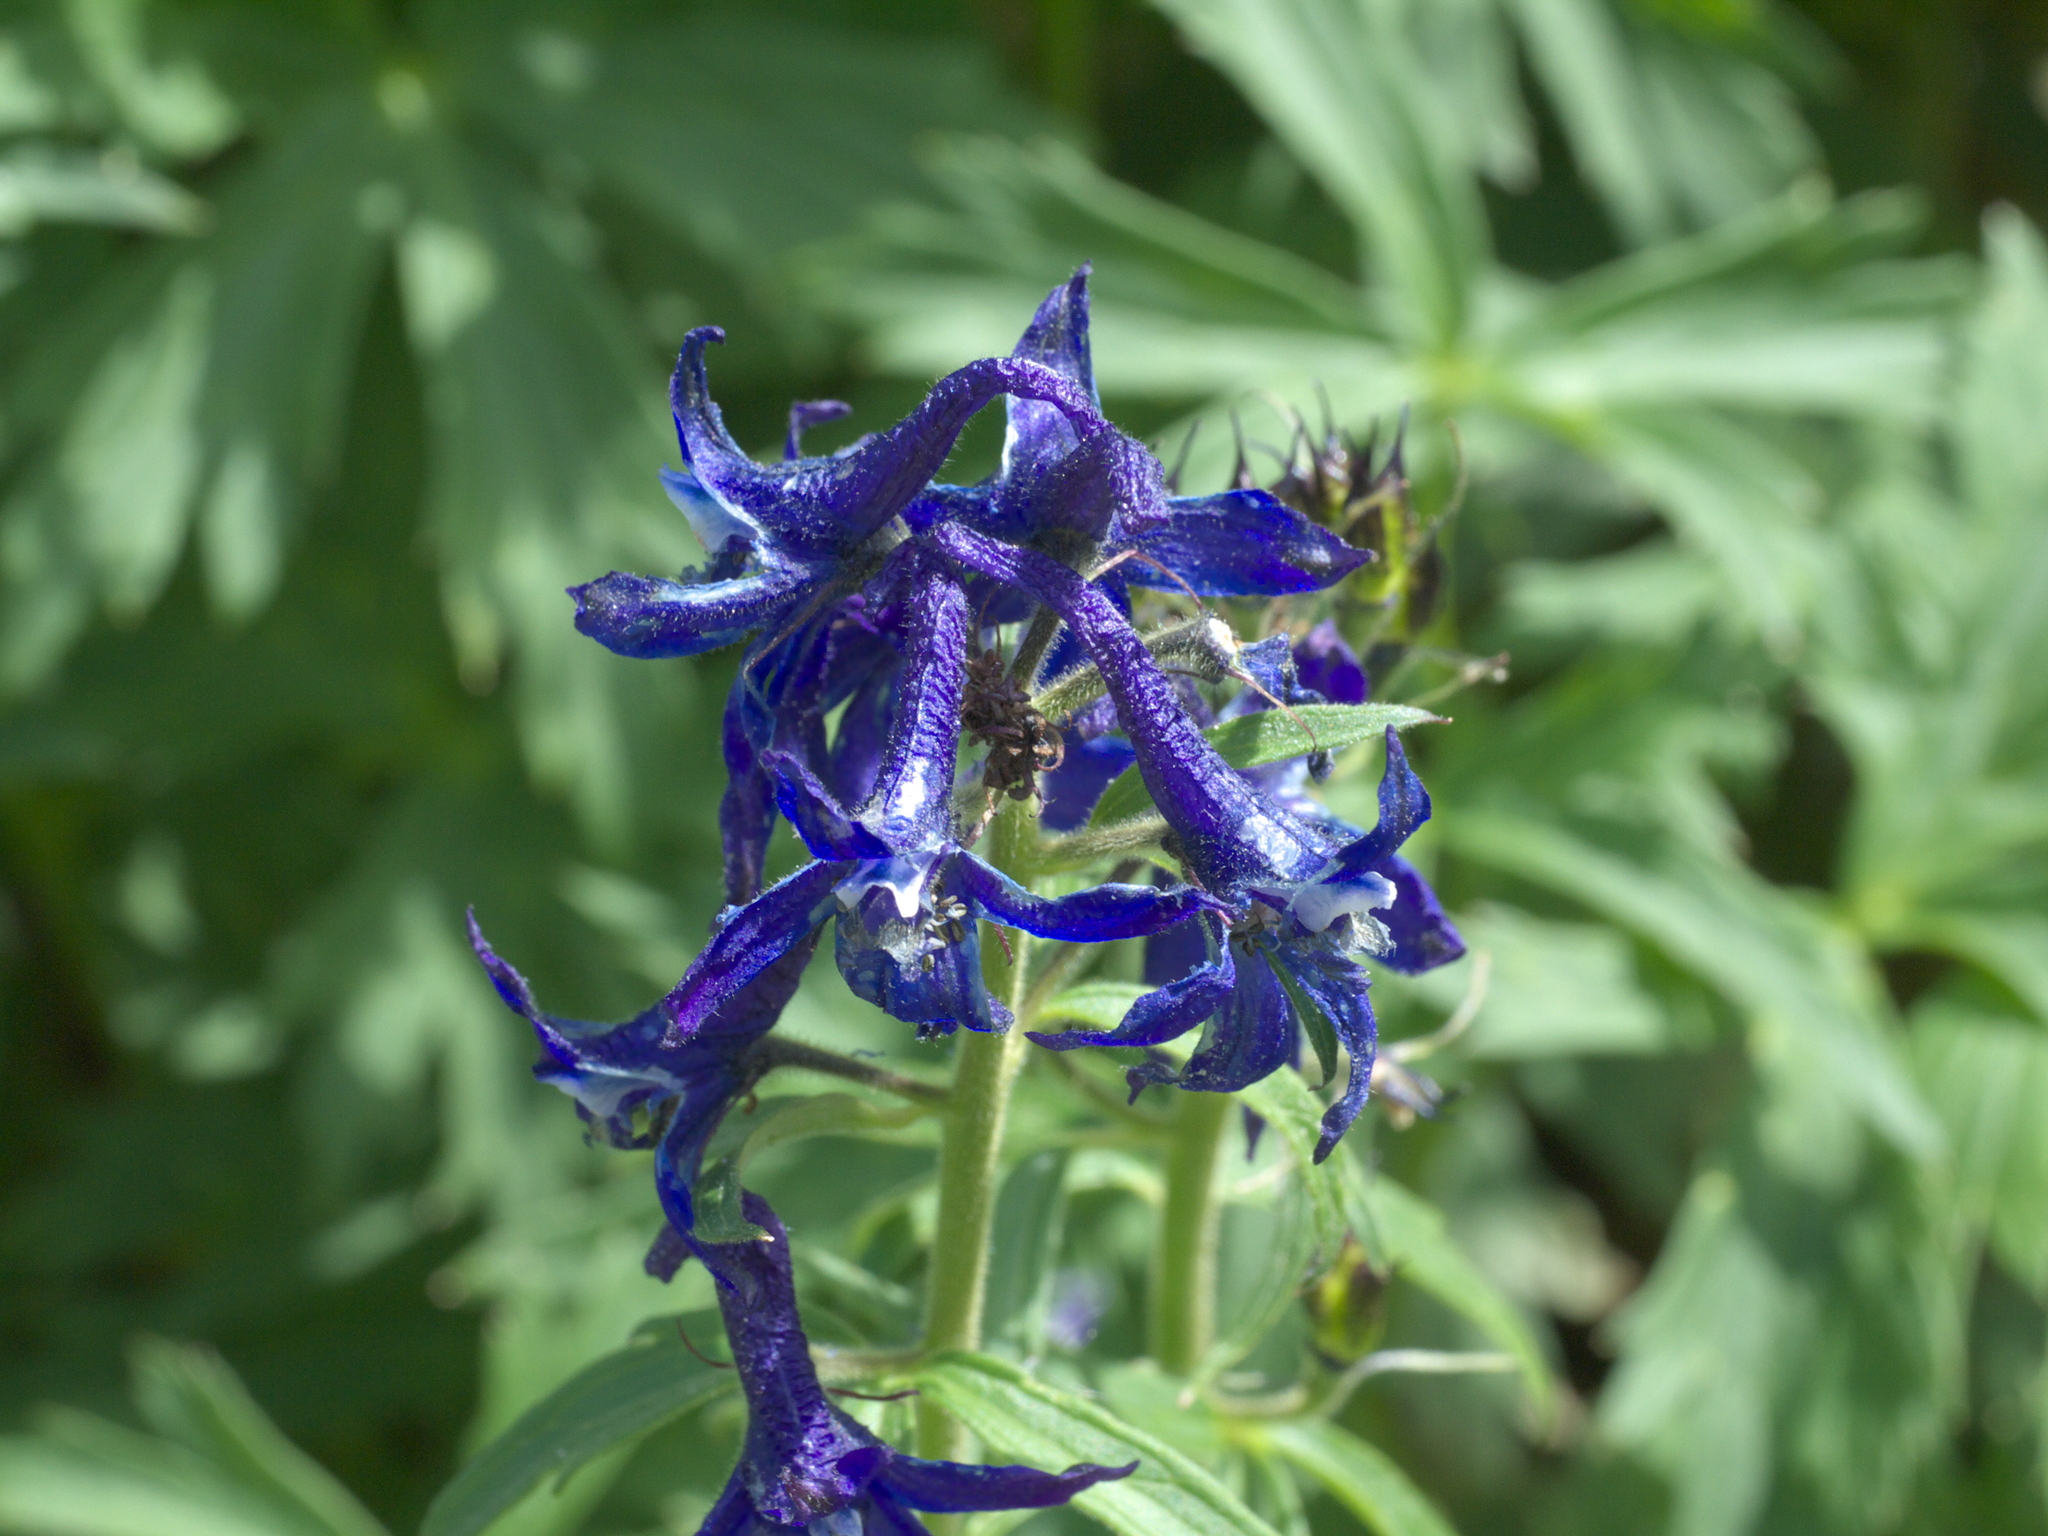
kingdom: Plantae
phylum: Tracheophyta
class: Magnoliopsida
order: Ranunculales
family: Ranunculaceae
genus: Delphinium
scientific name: Delphinium barbeyi
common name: Subalpine larkspur
